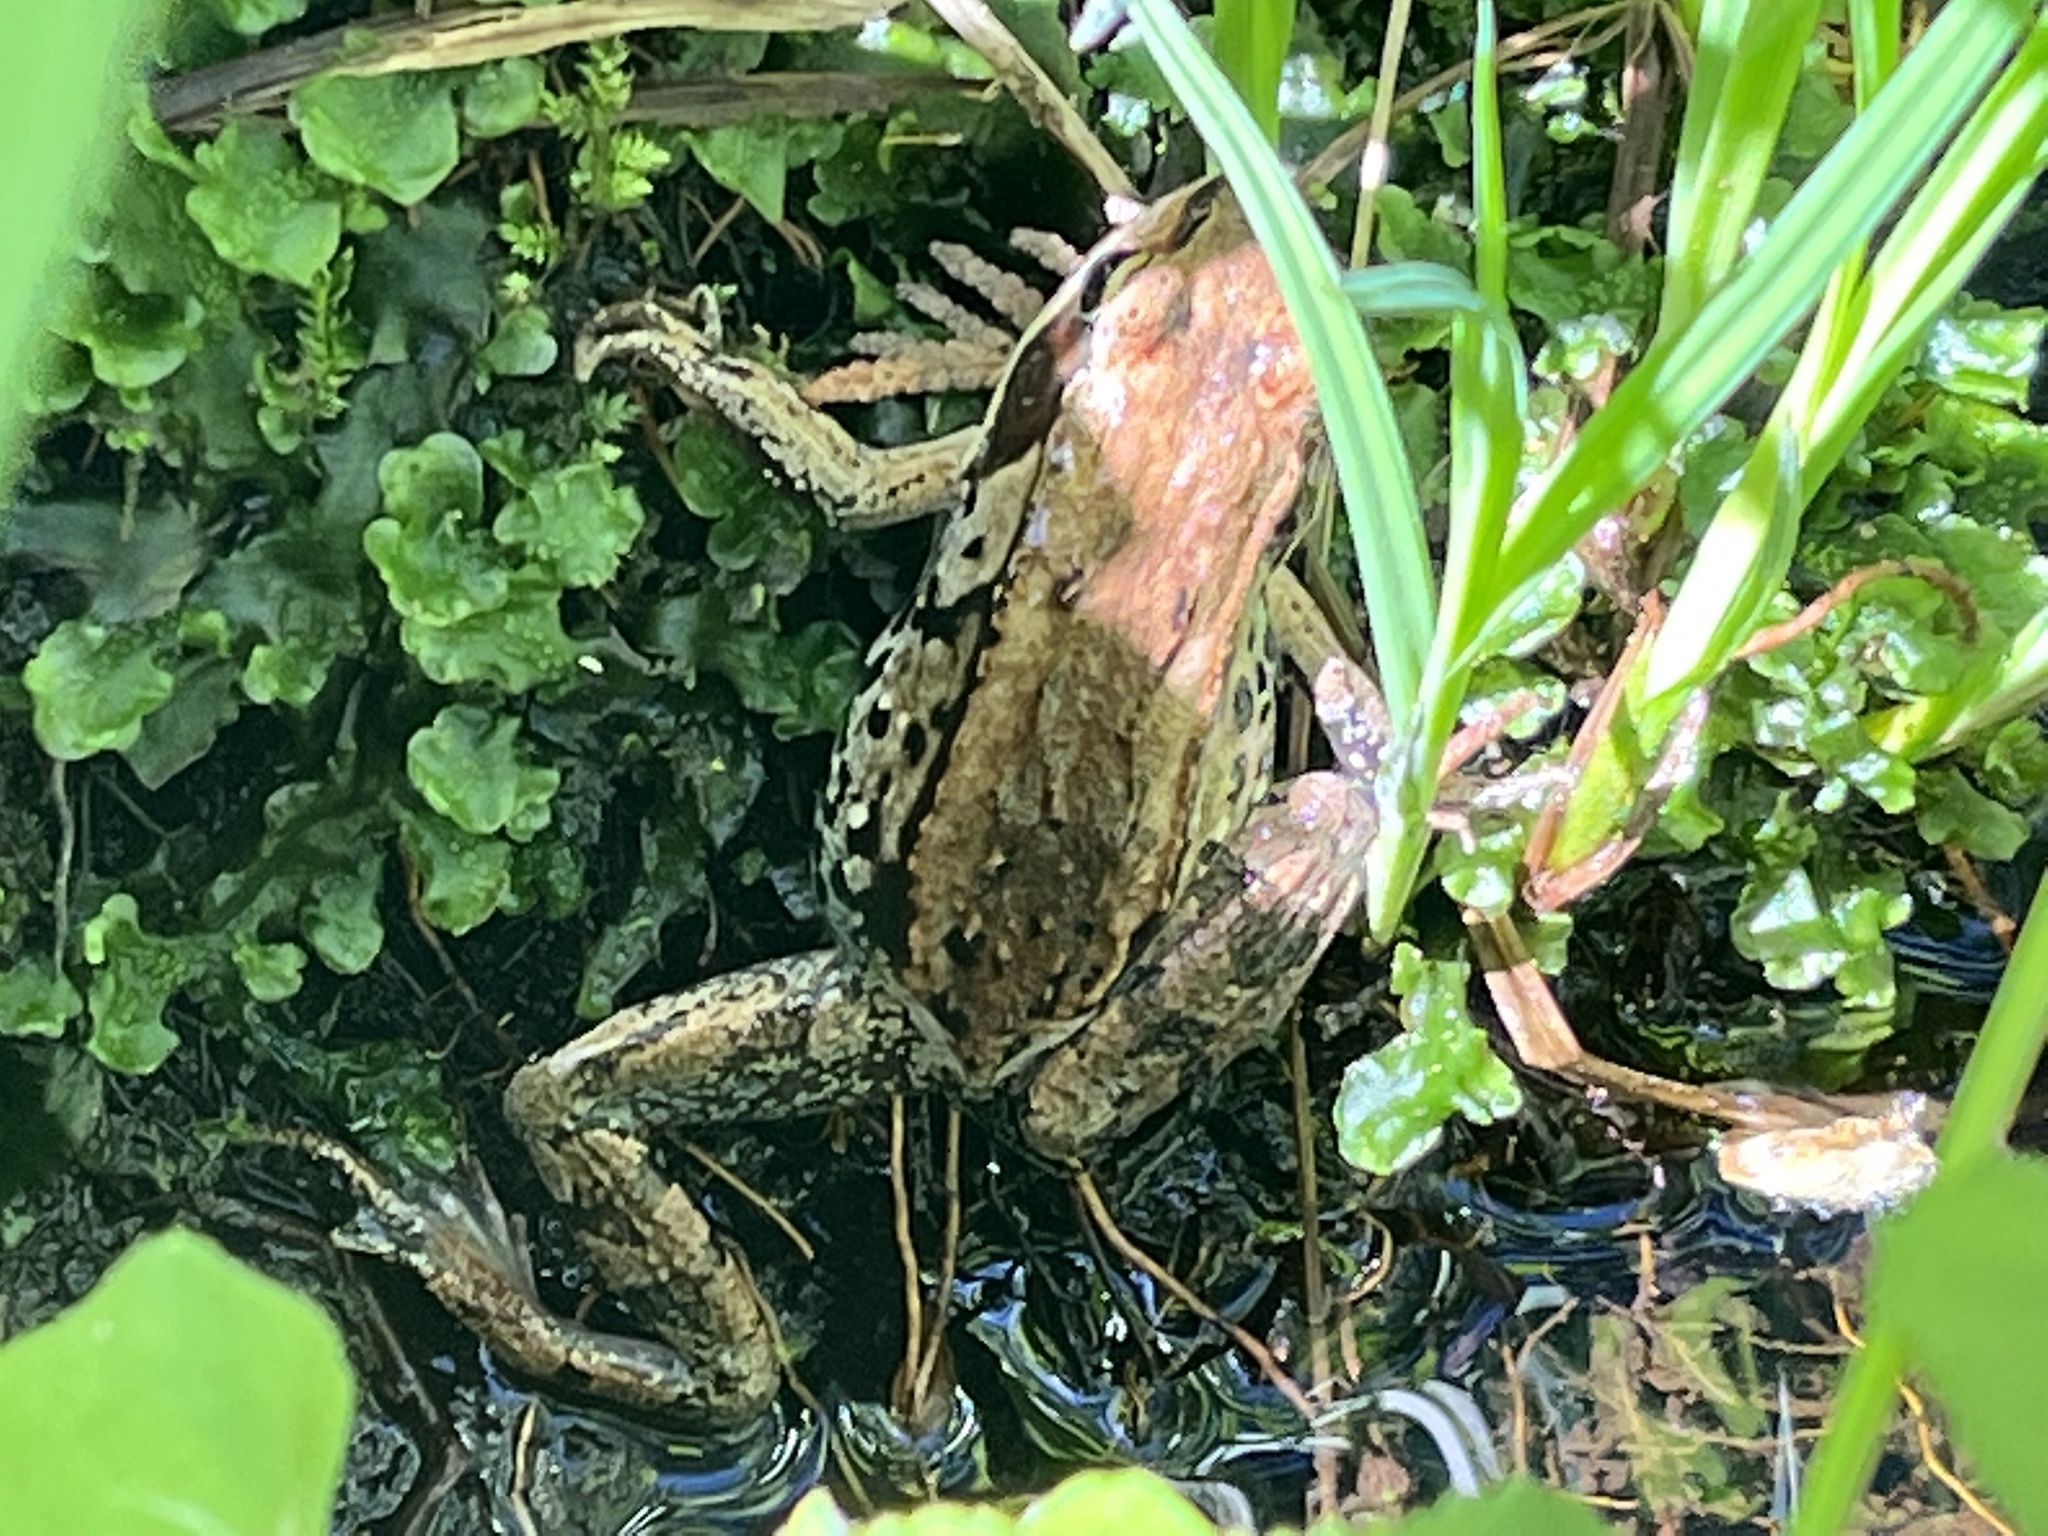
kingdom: Animalia
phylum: Chordata
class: Amphibia
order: Anura
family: Ranidae
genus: Lithobates
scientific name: Lithobates sylvaticus
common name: Wood frog
